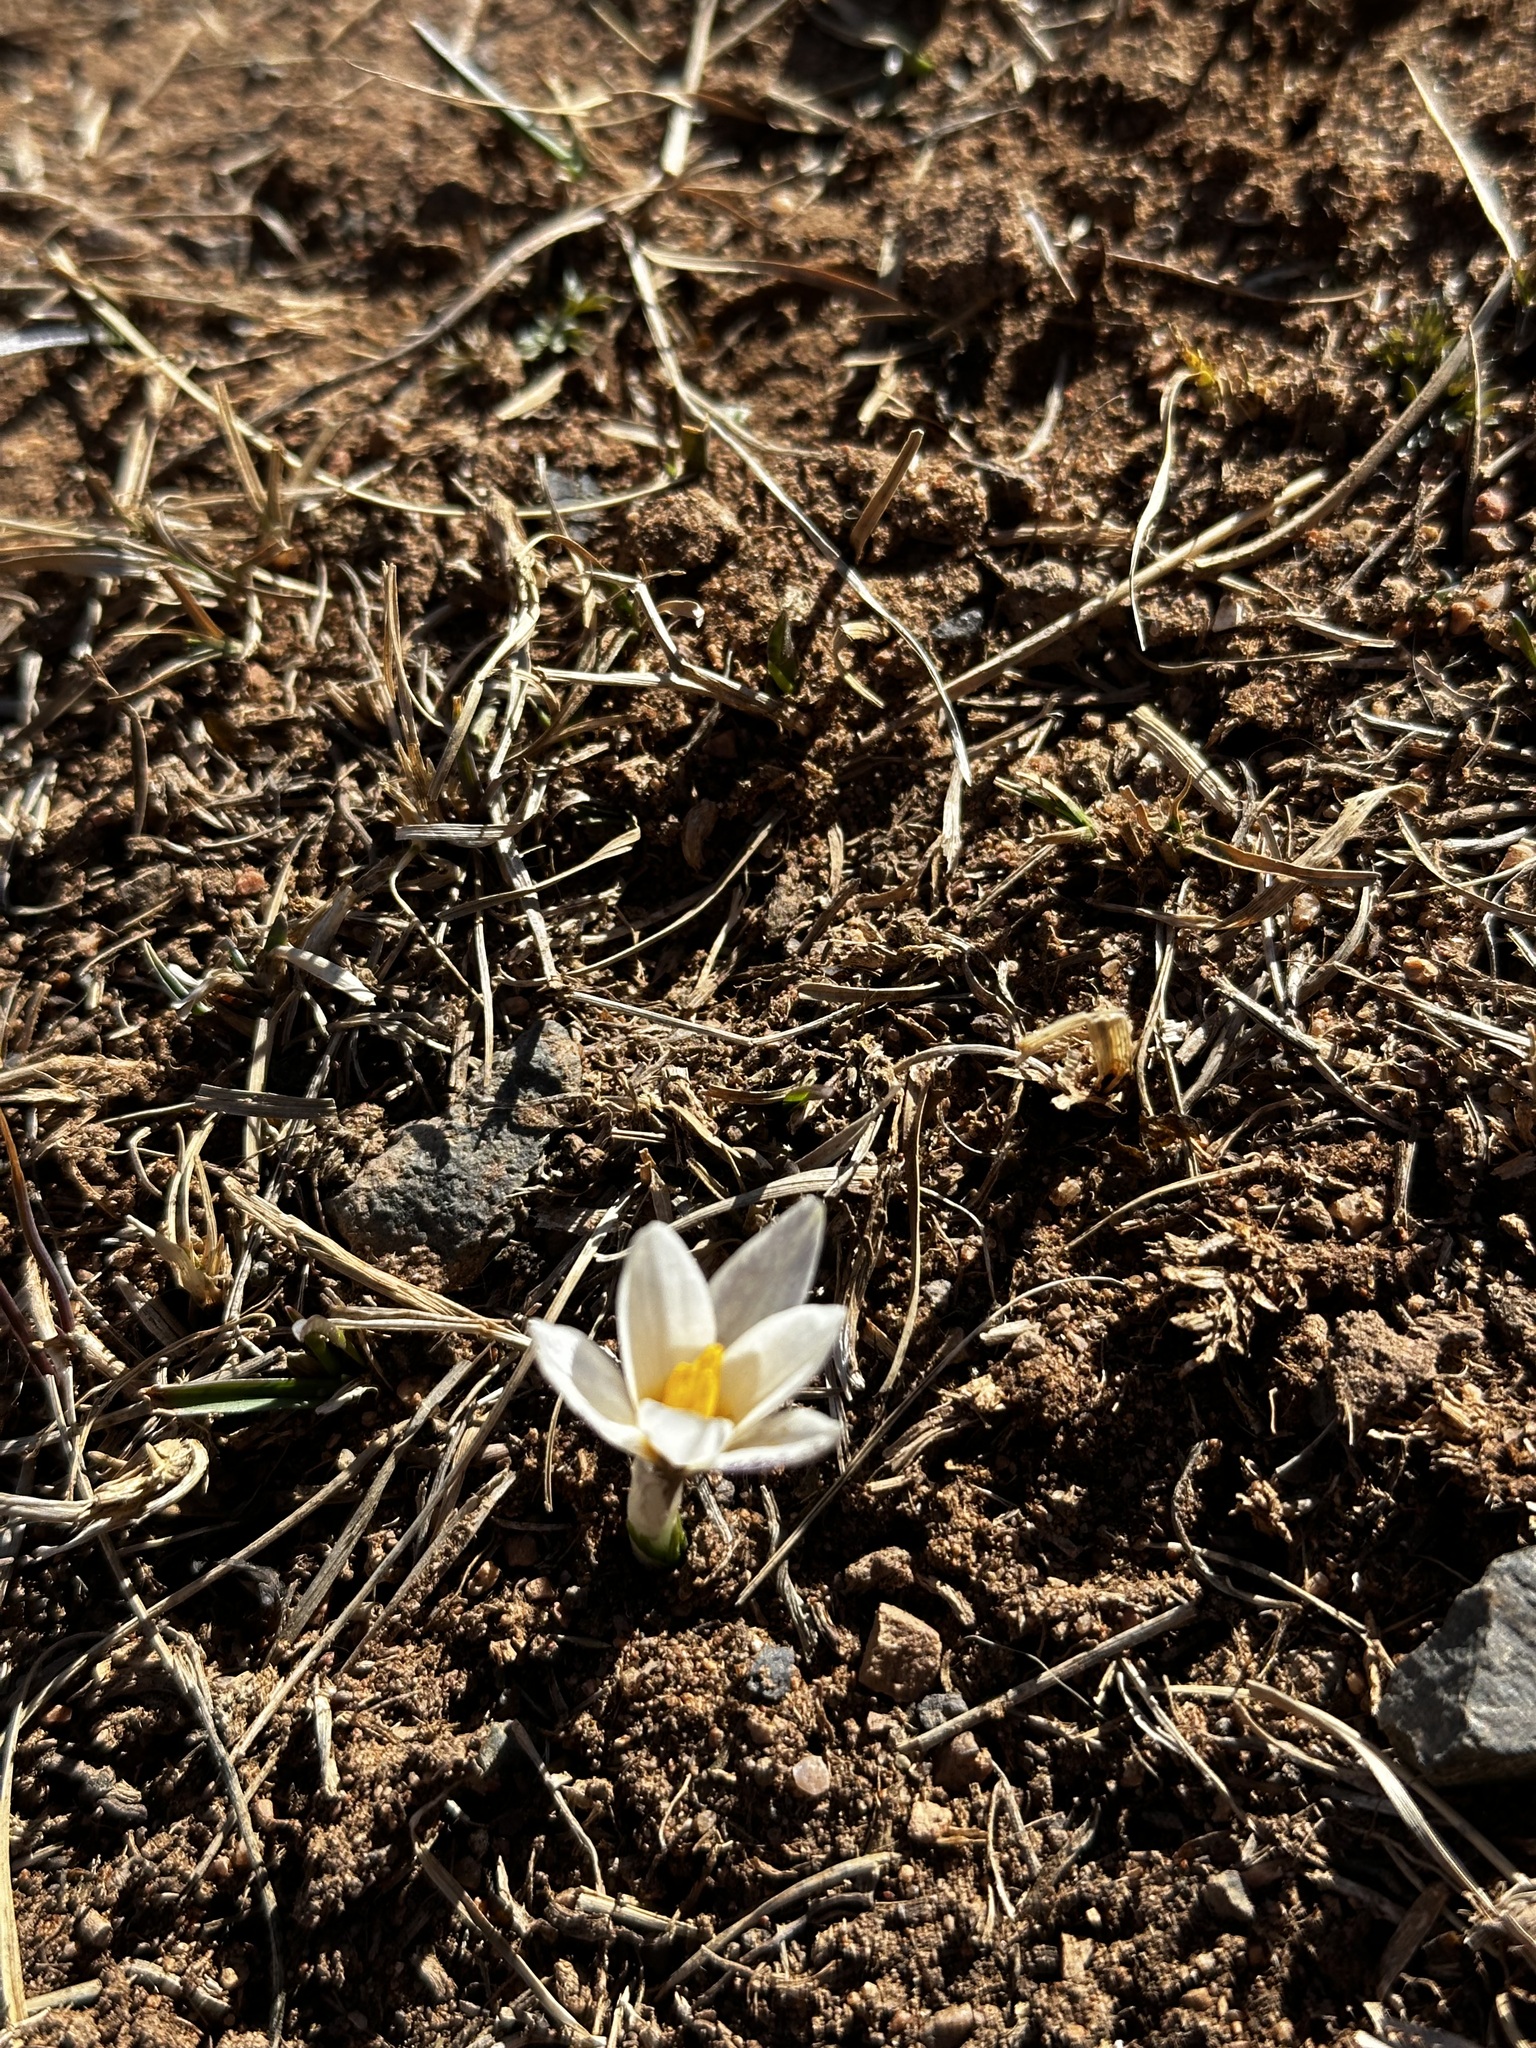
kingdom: Plantae
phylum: Tracheophyta
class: Liliopsida
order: Asparagales
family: Iridaceae
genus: Crocus
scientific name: Crocus alatavicus
